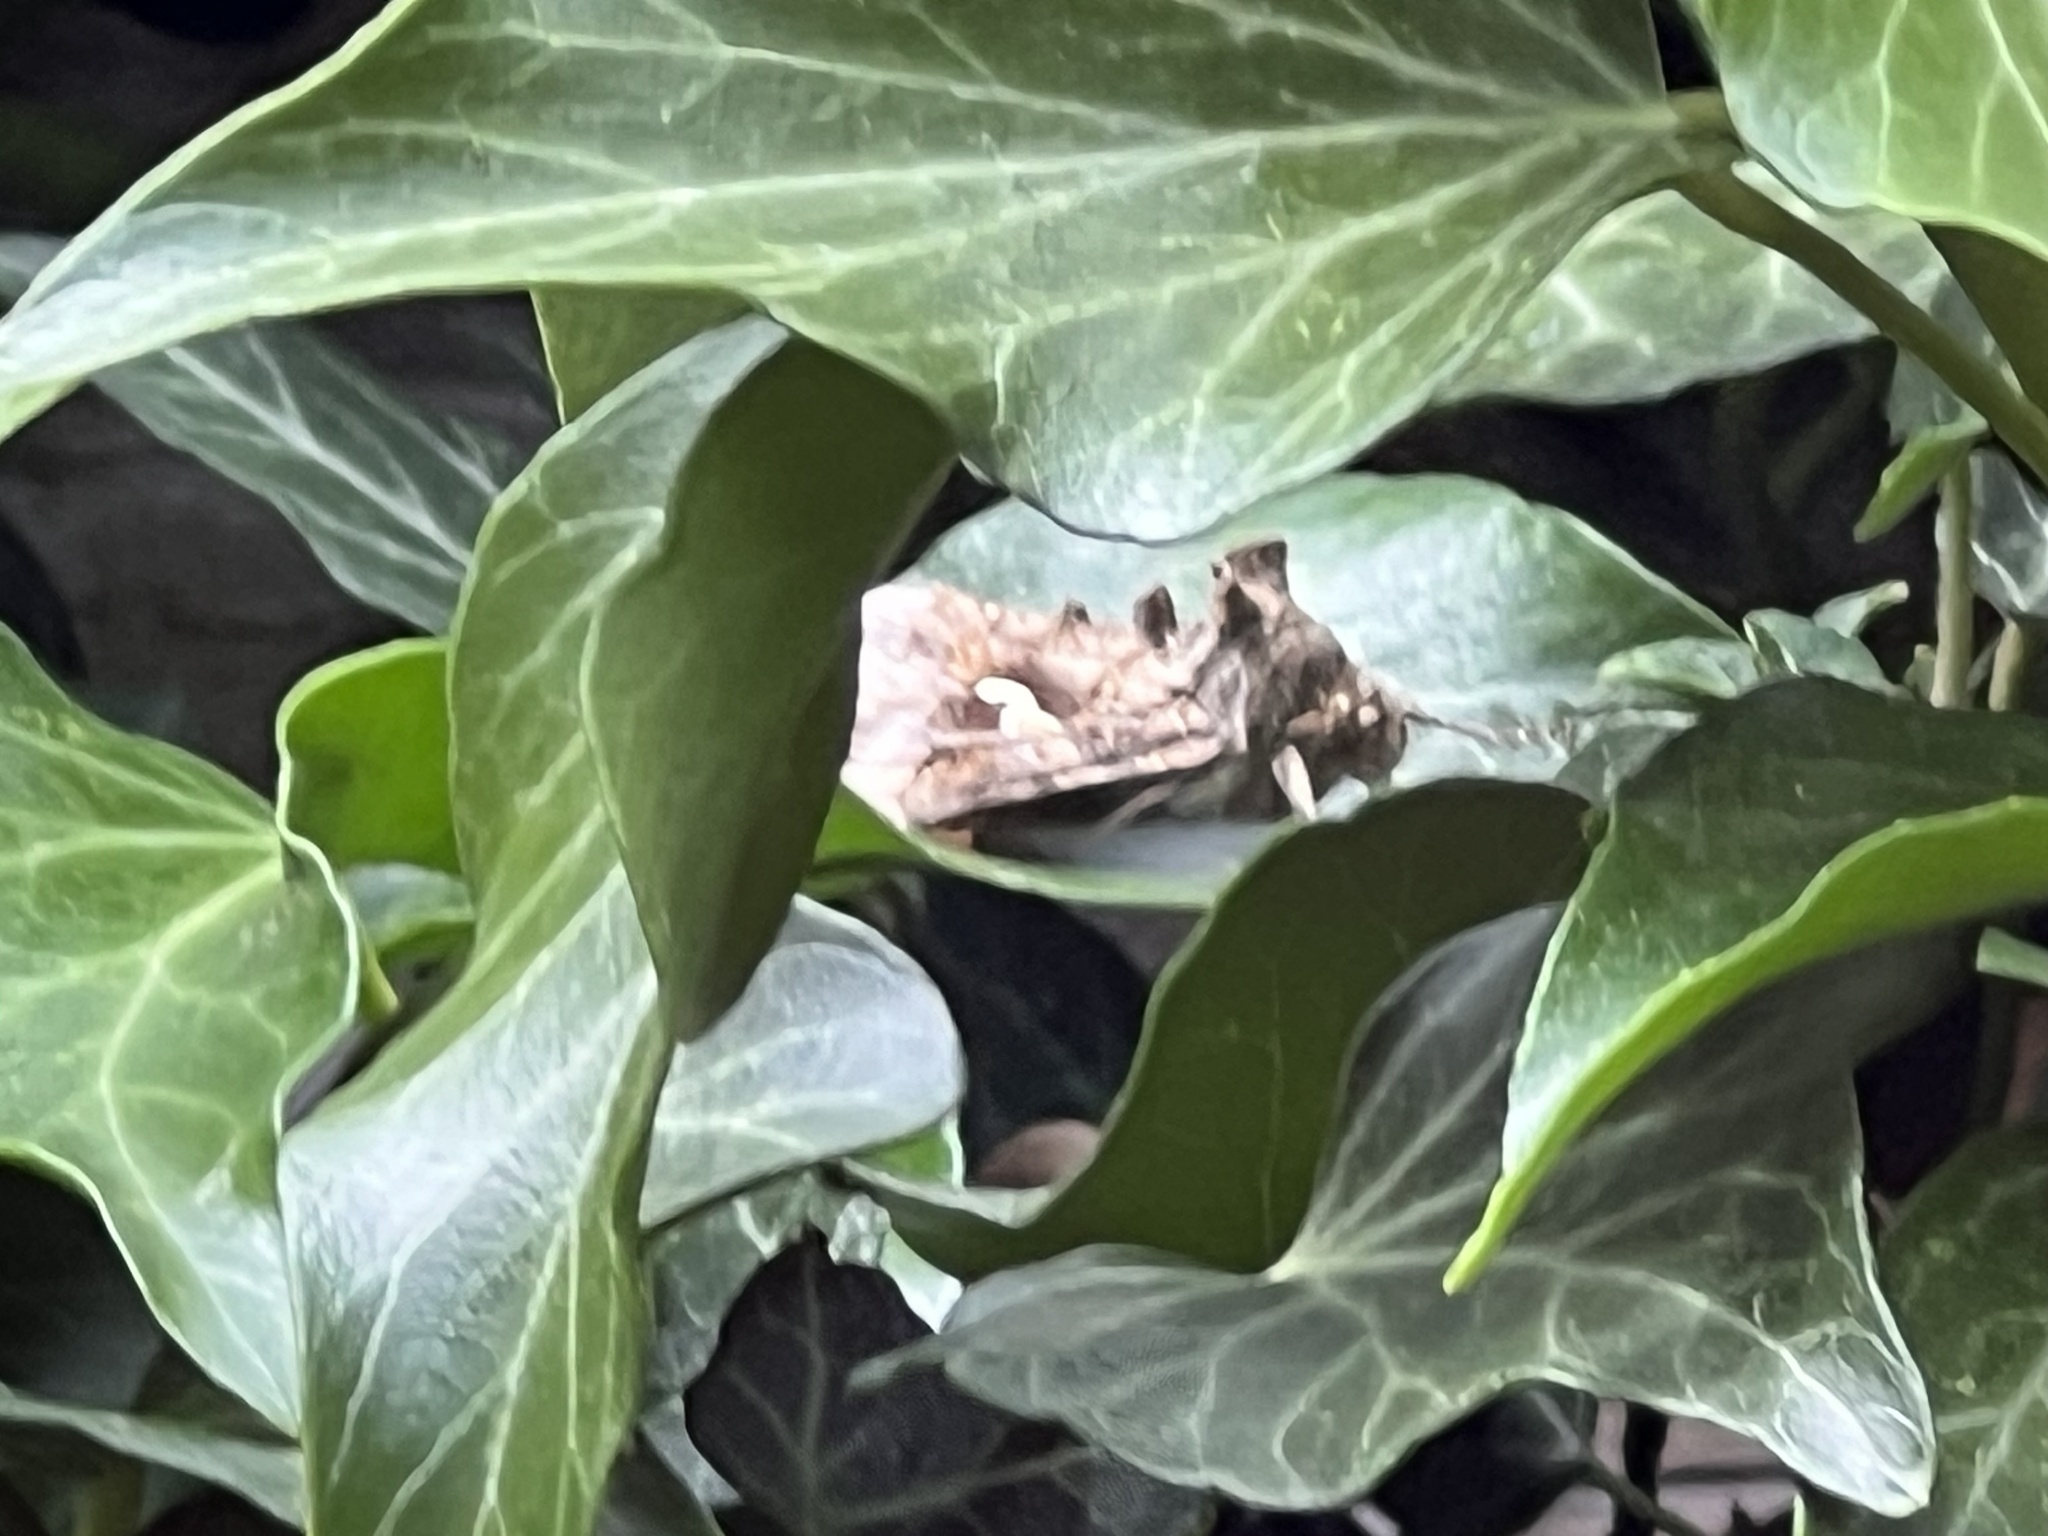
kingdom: Animalia
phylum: Arthropoda
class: Insecta
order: Lepidoptera
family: Noctuidae
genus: Autographa
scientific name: Autographa gamma
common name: Silver y
